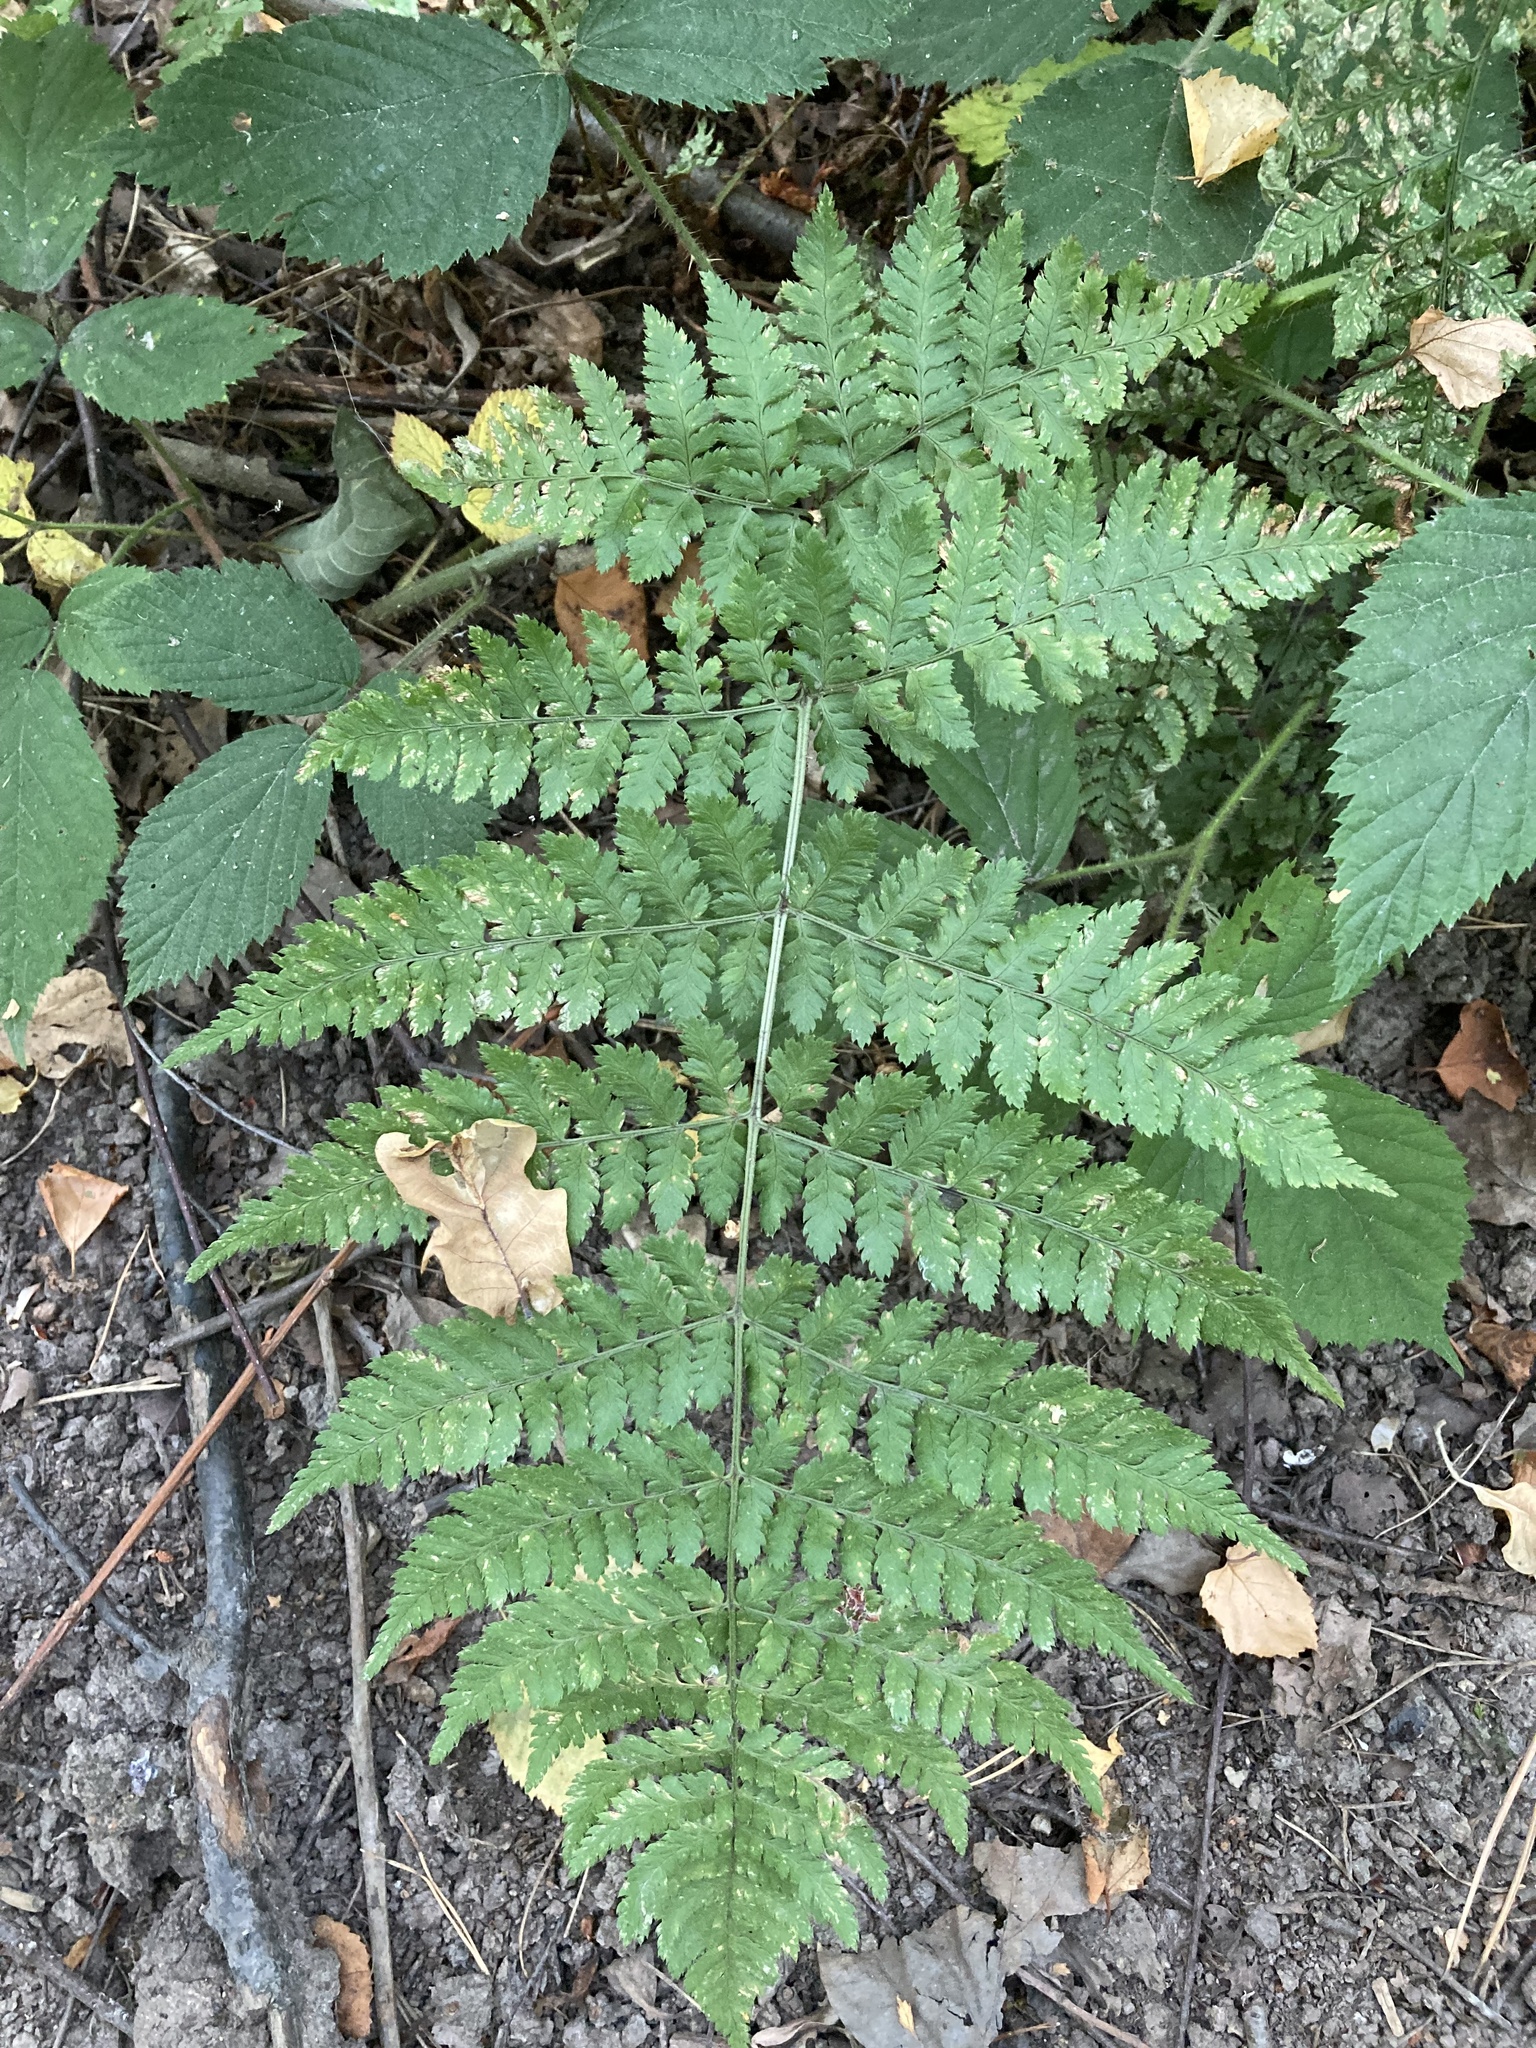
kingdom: Plantae
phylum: Tracheophyta
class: Polypodiopsida
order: Polypodiales
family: Dryopteridaceae
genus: Dryopteris
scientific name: Dryopteris dilatata
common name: Broad buckler-fern
